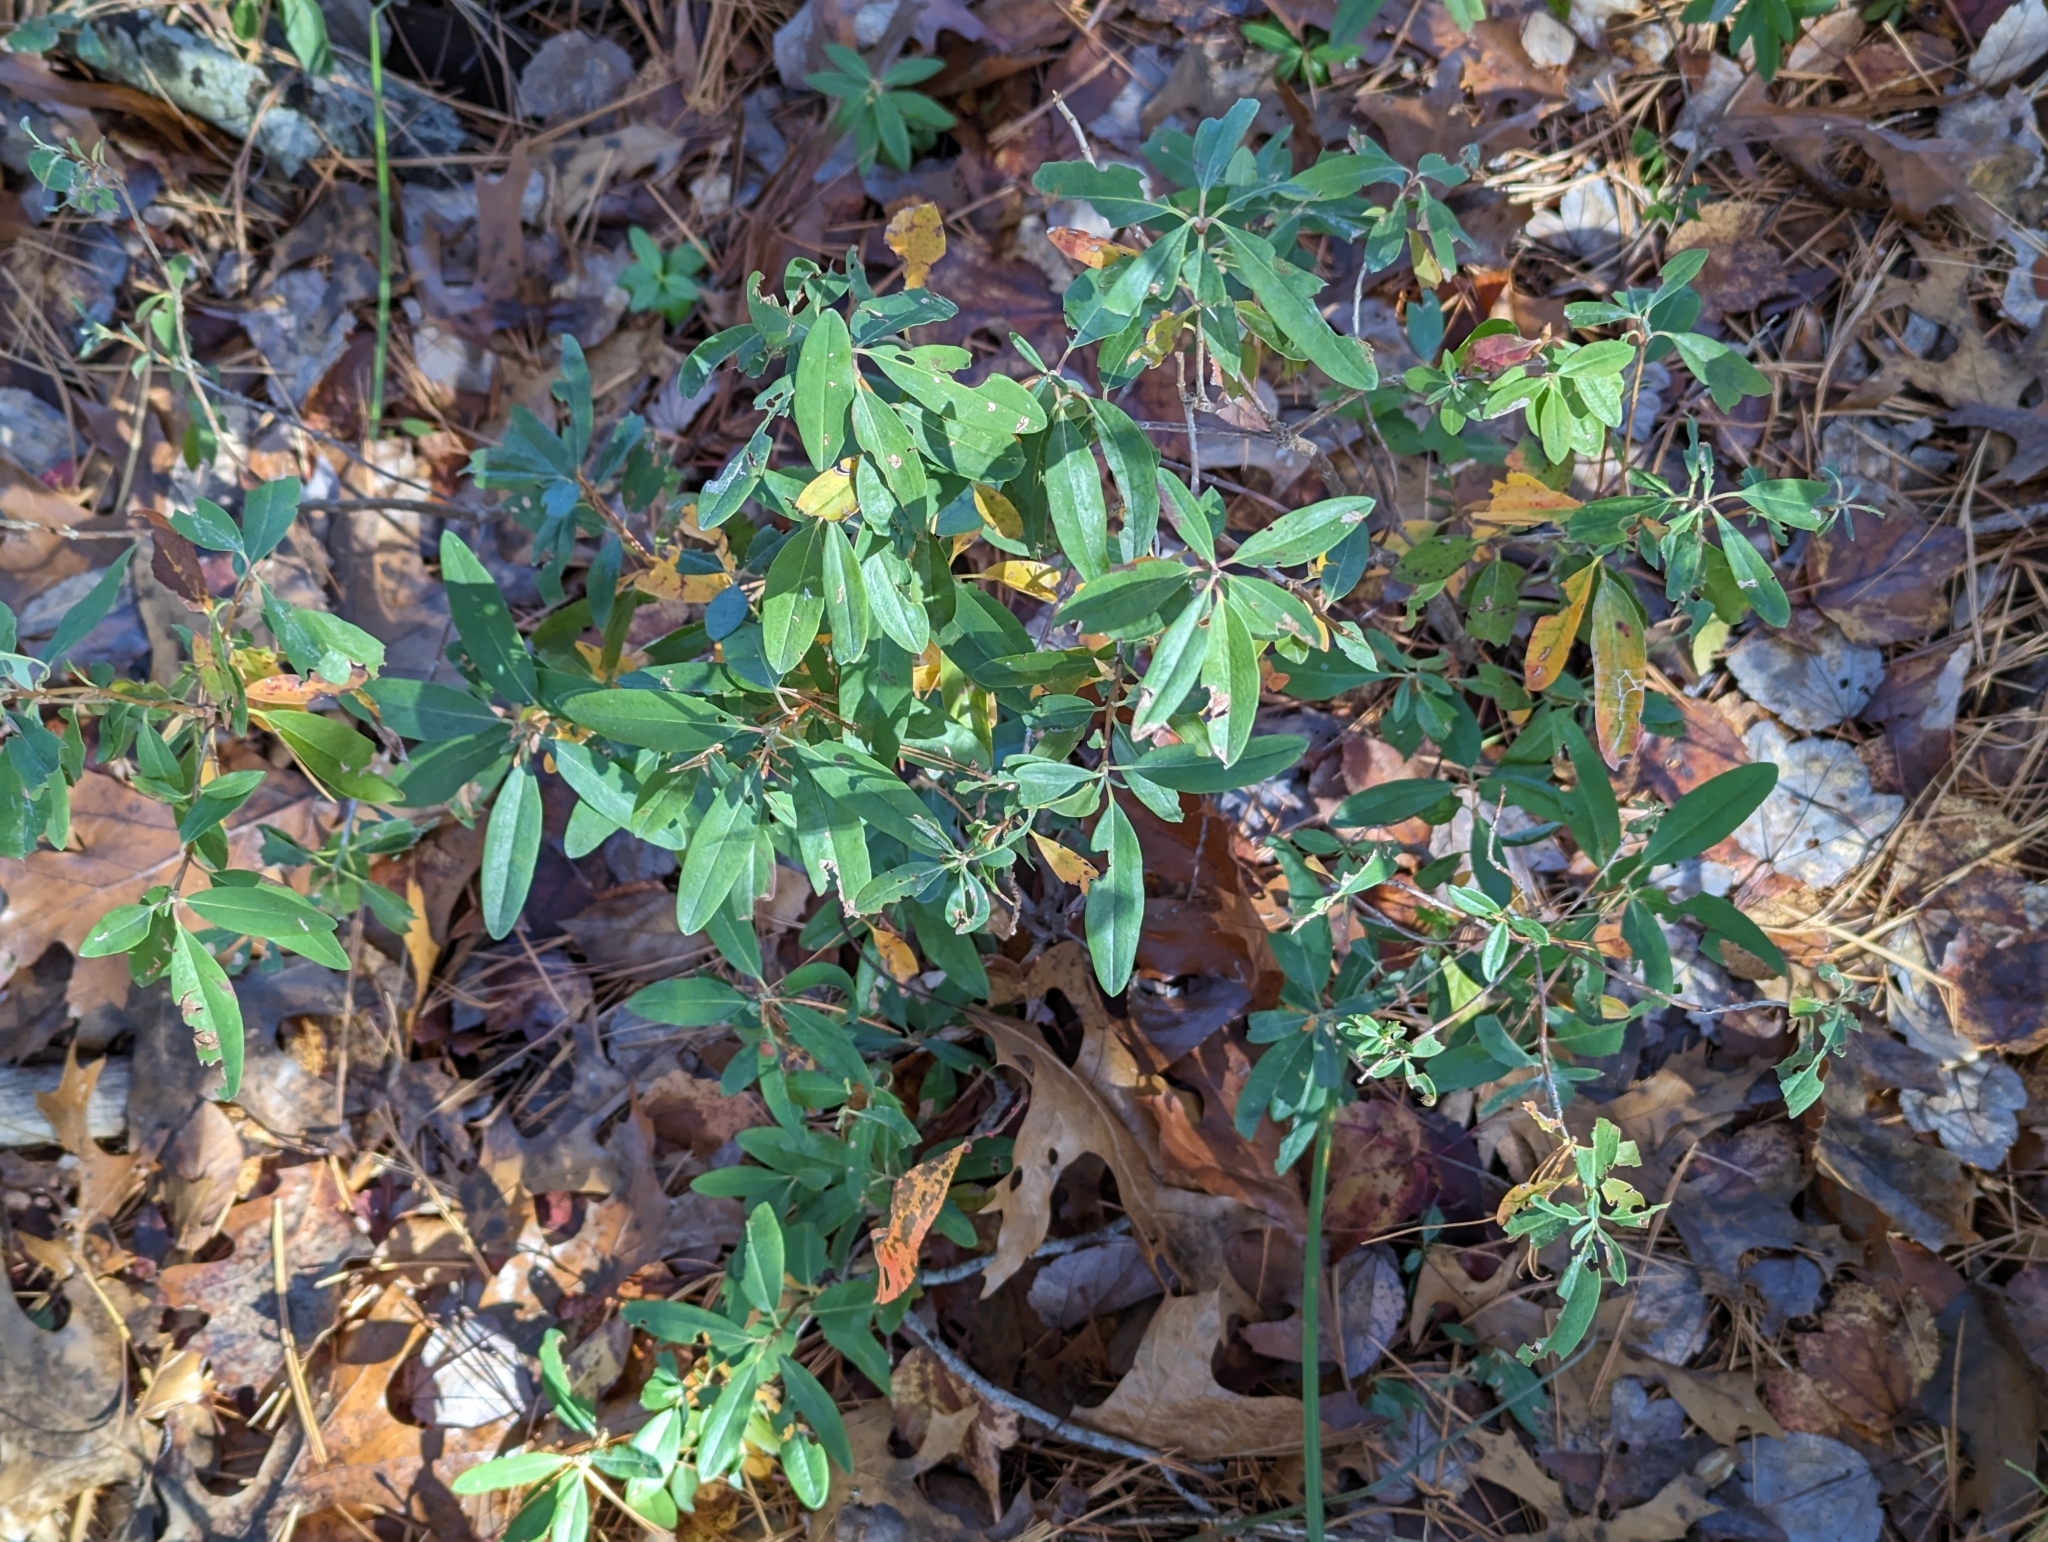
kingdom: Plantae
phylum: Tracheophyta
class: Magnoliopsida
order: Ericales
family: Ericaceae
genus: Kalmia
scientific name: Kalmia angustifolia
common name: Sheep-laurel
